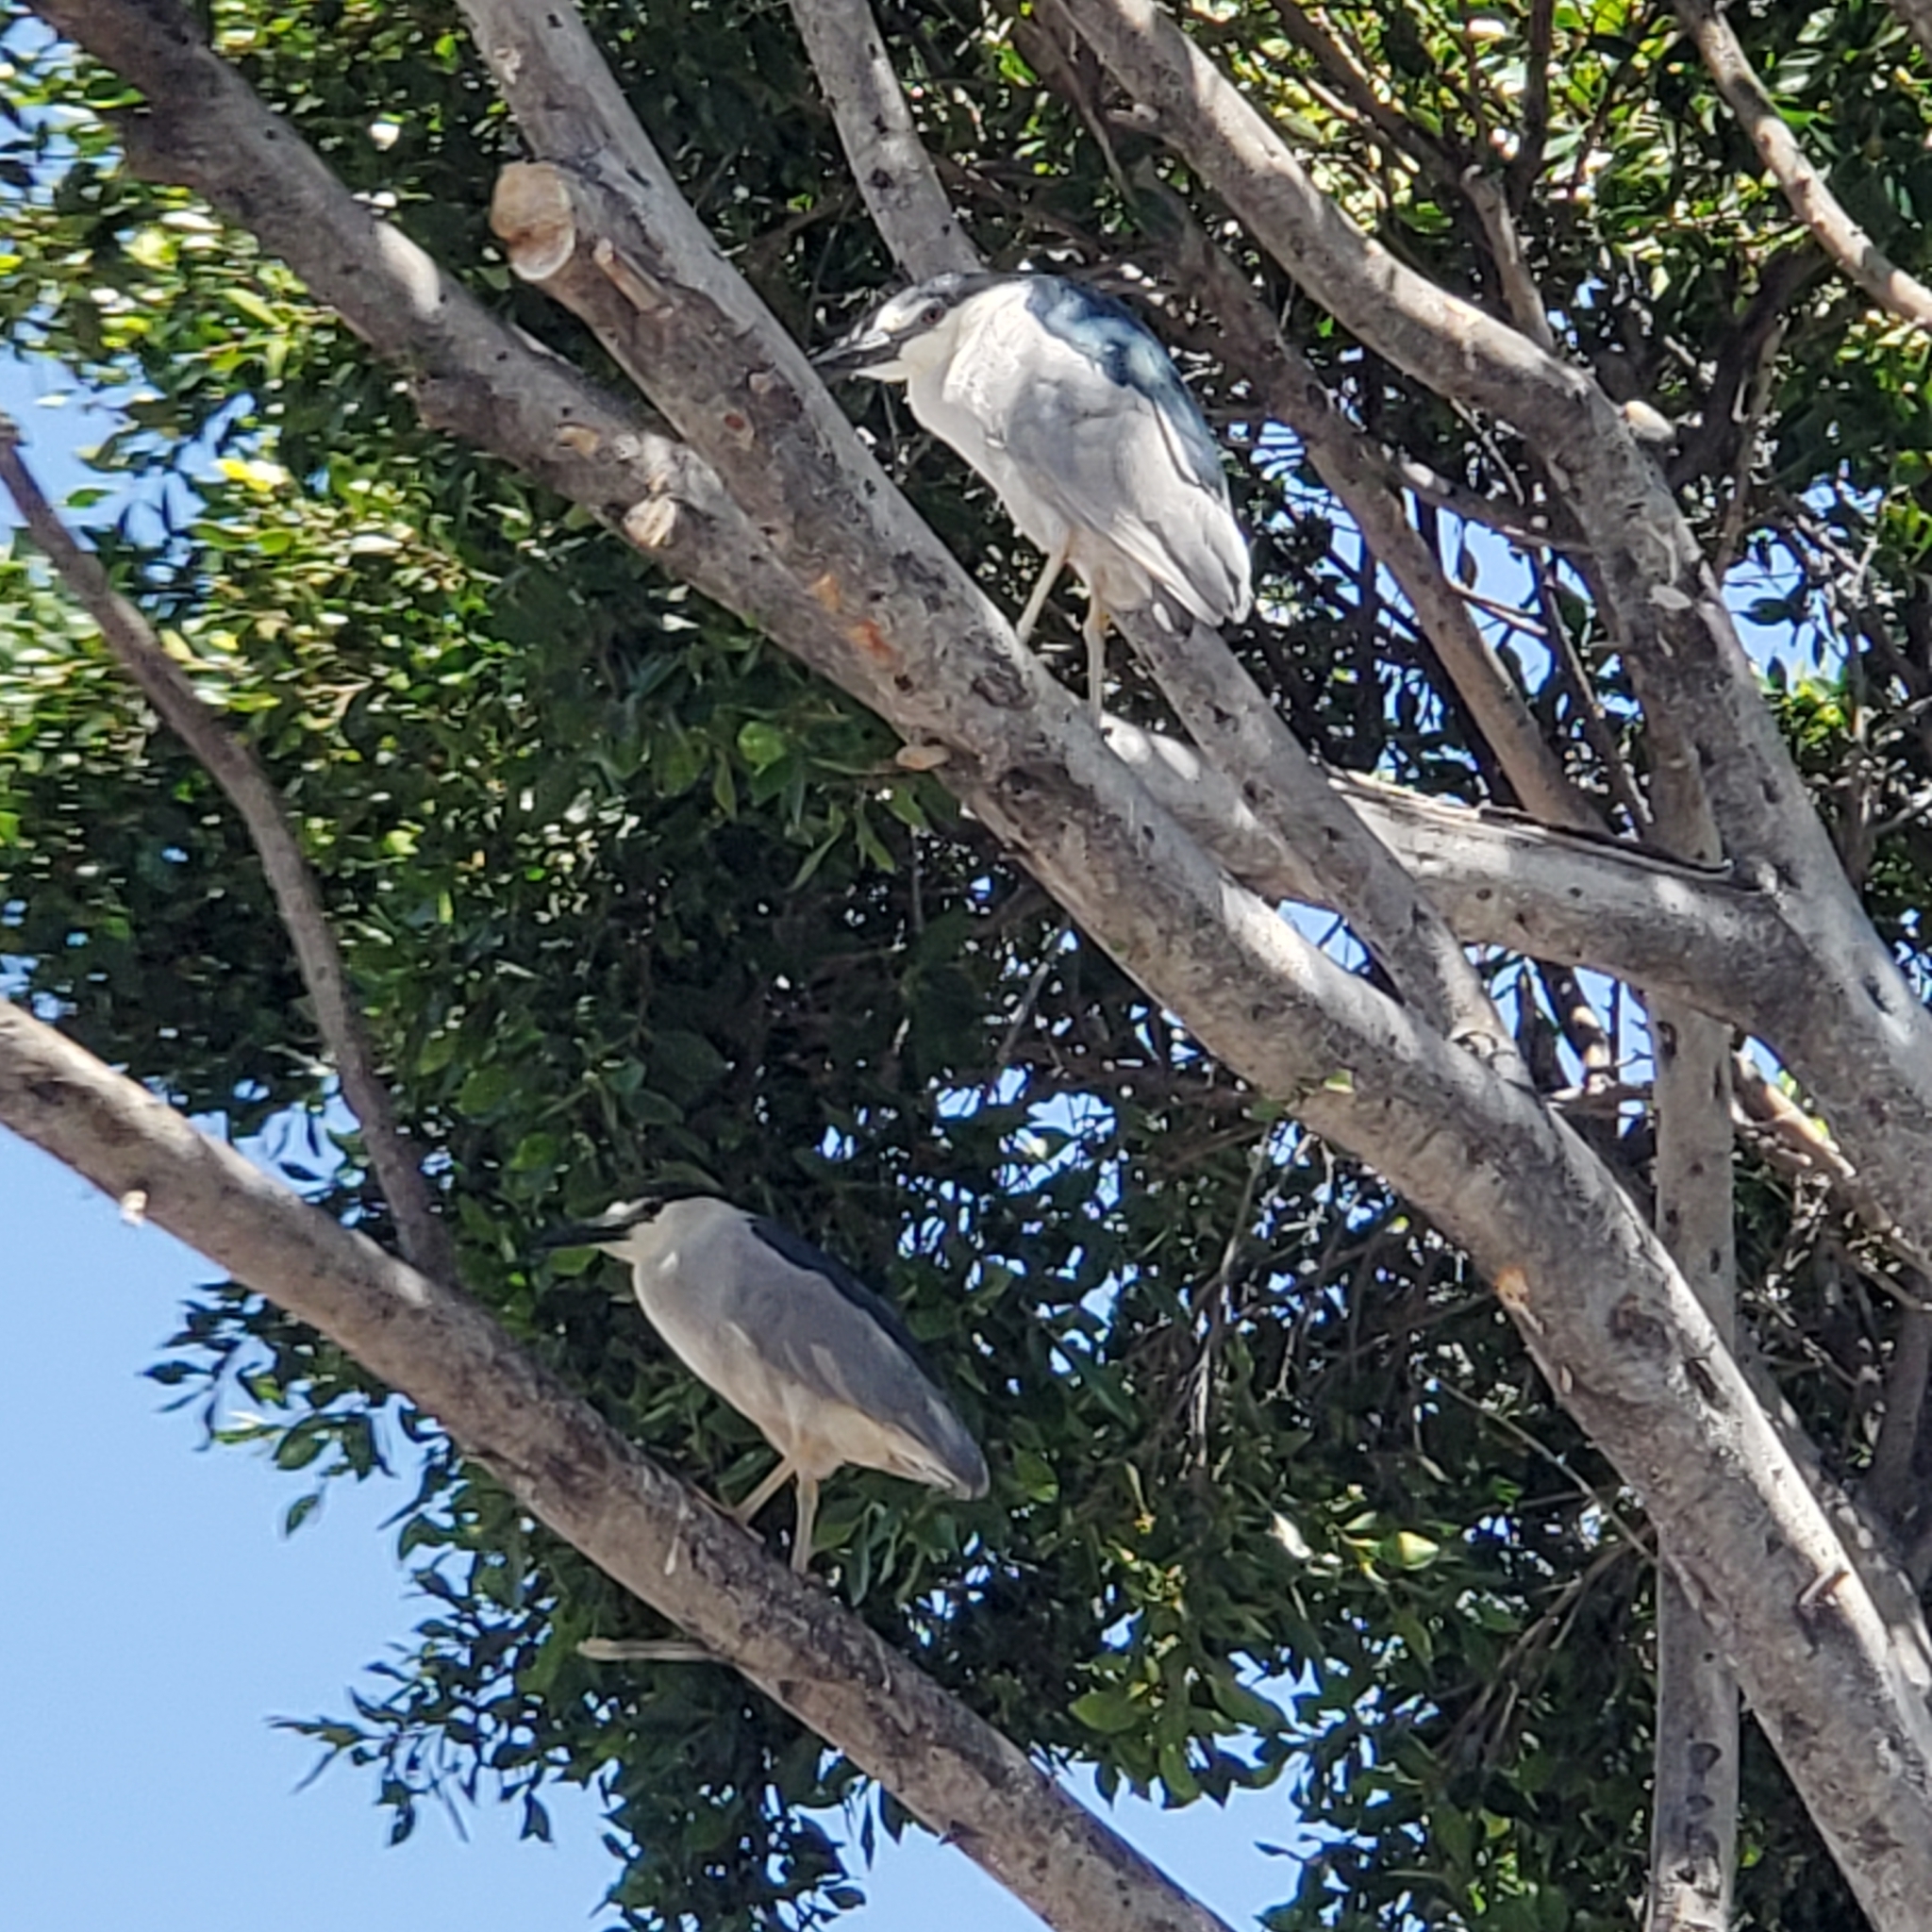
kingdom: Animalia
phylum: Chordata
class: Aves
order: Pelecaniformes
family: Ardeidae
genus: Nycticorax
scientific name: Nycticorax nycticorax
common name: Black-crowned night heron
